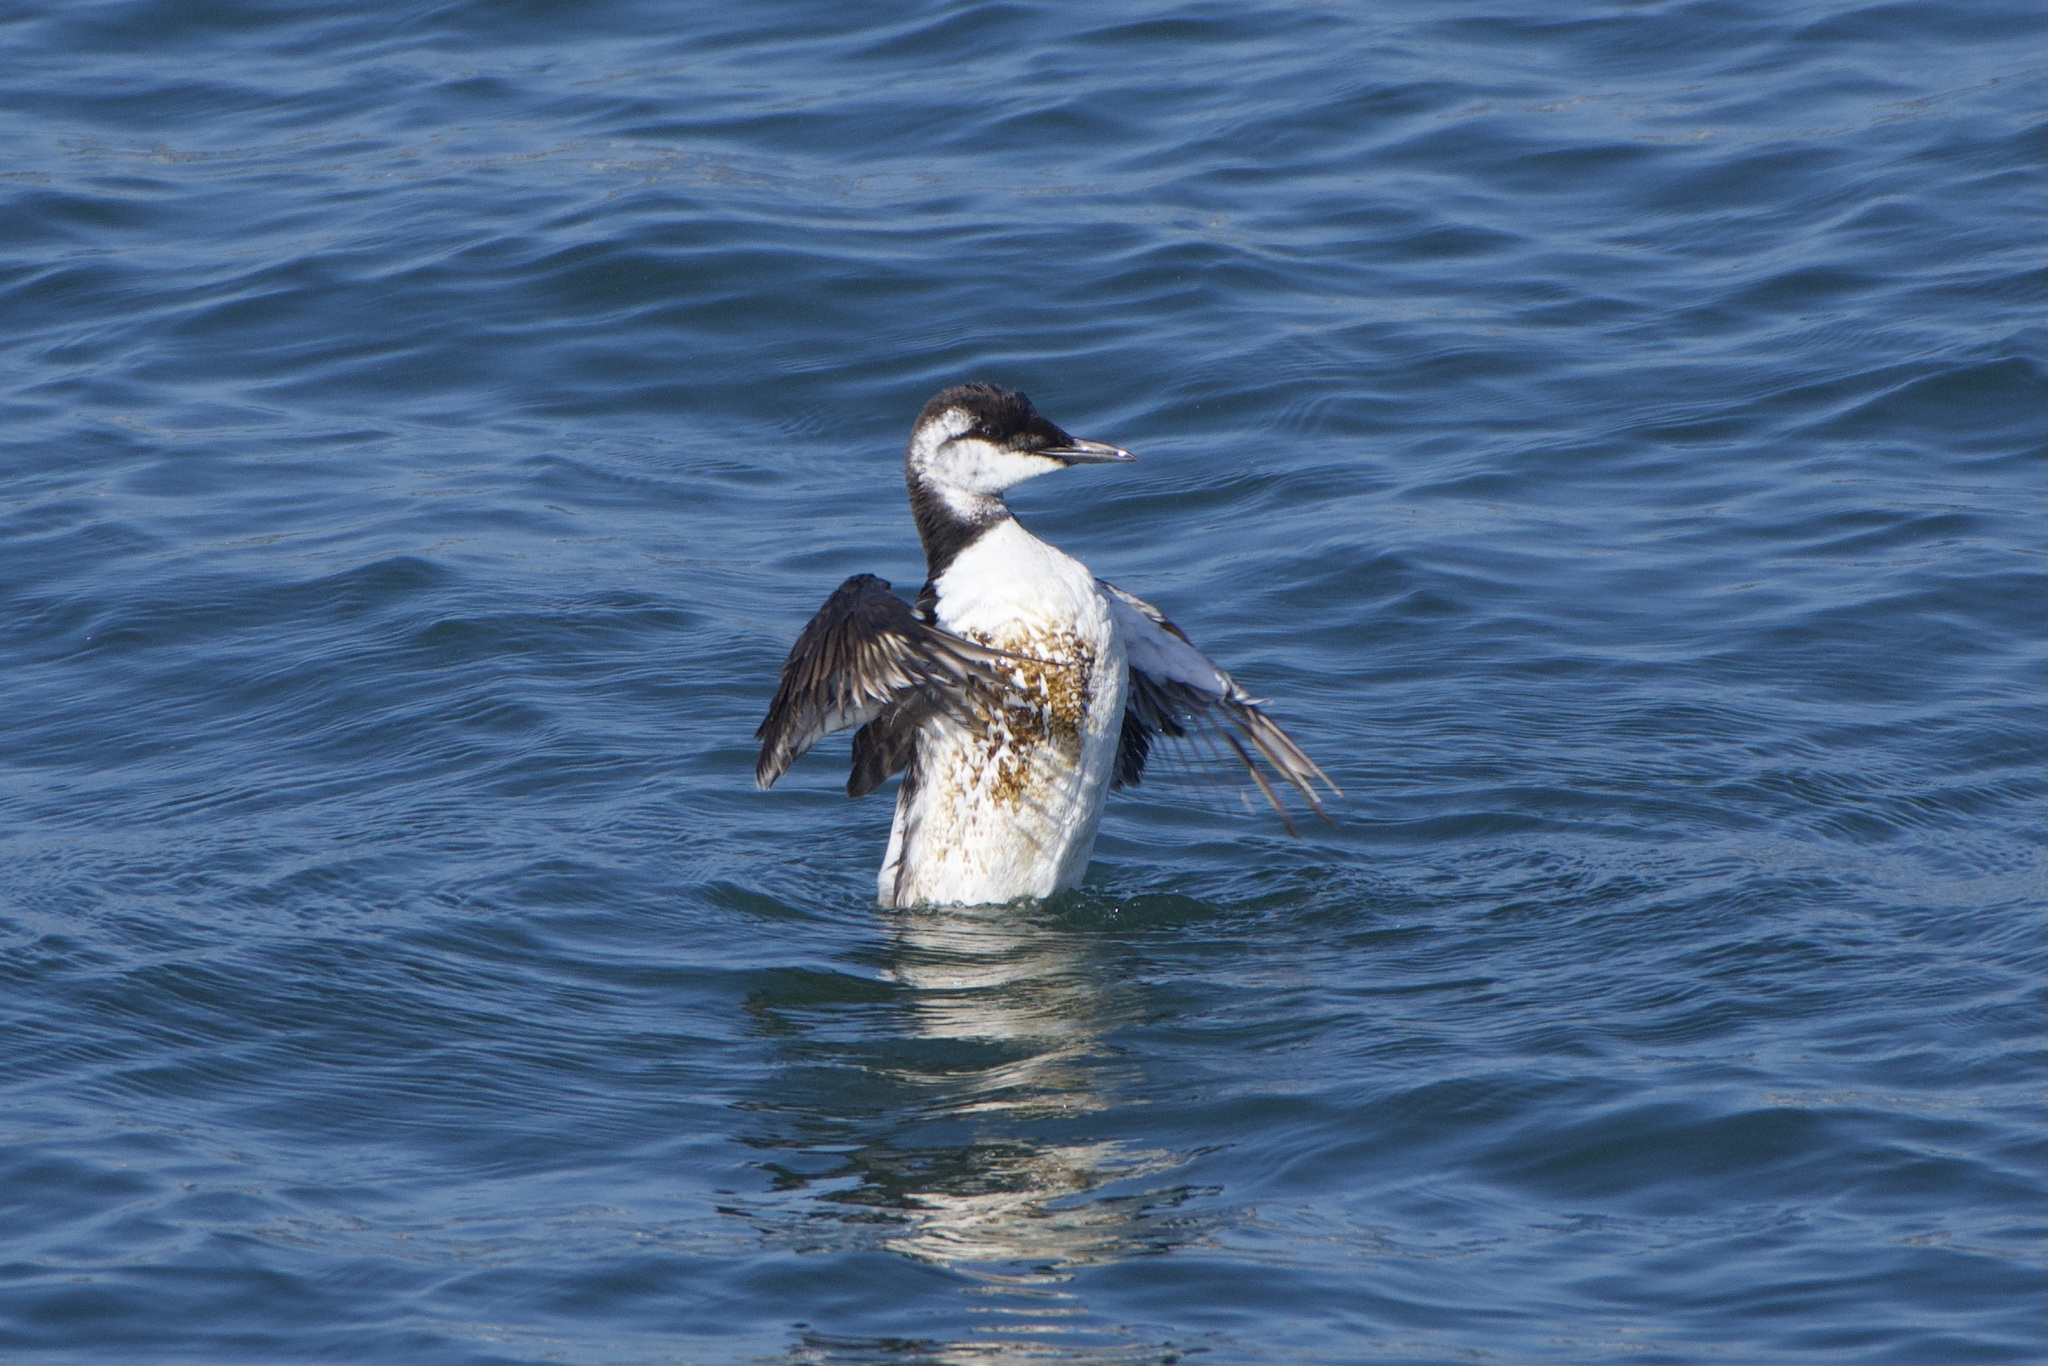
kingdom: Animalia
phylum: Chordata
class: Aves
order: Charadriiformes
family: Alcidae
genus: Uria
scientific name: Uria aalge
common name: Common murre
